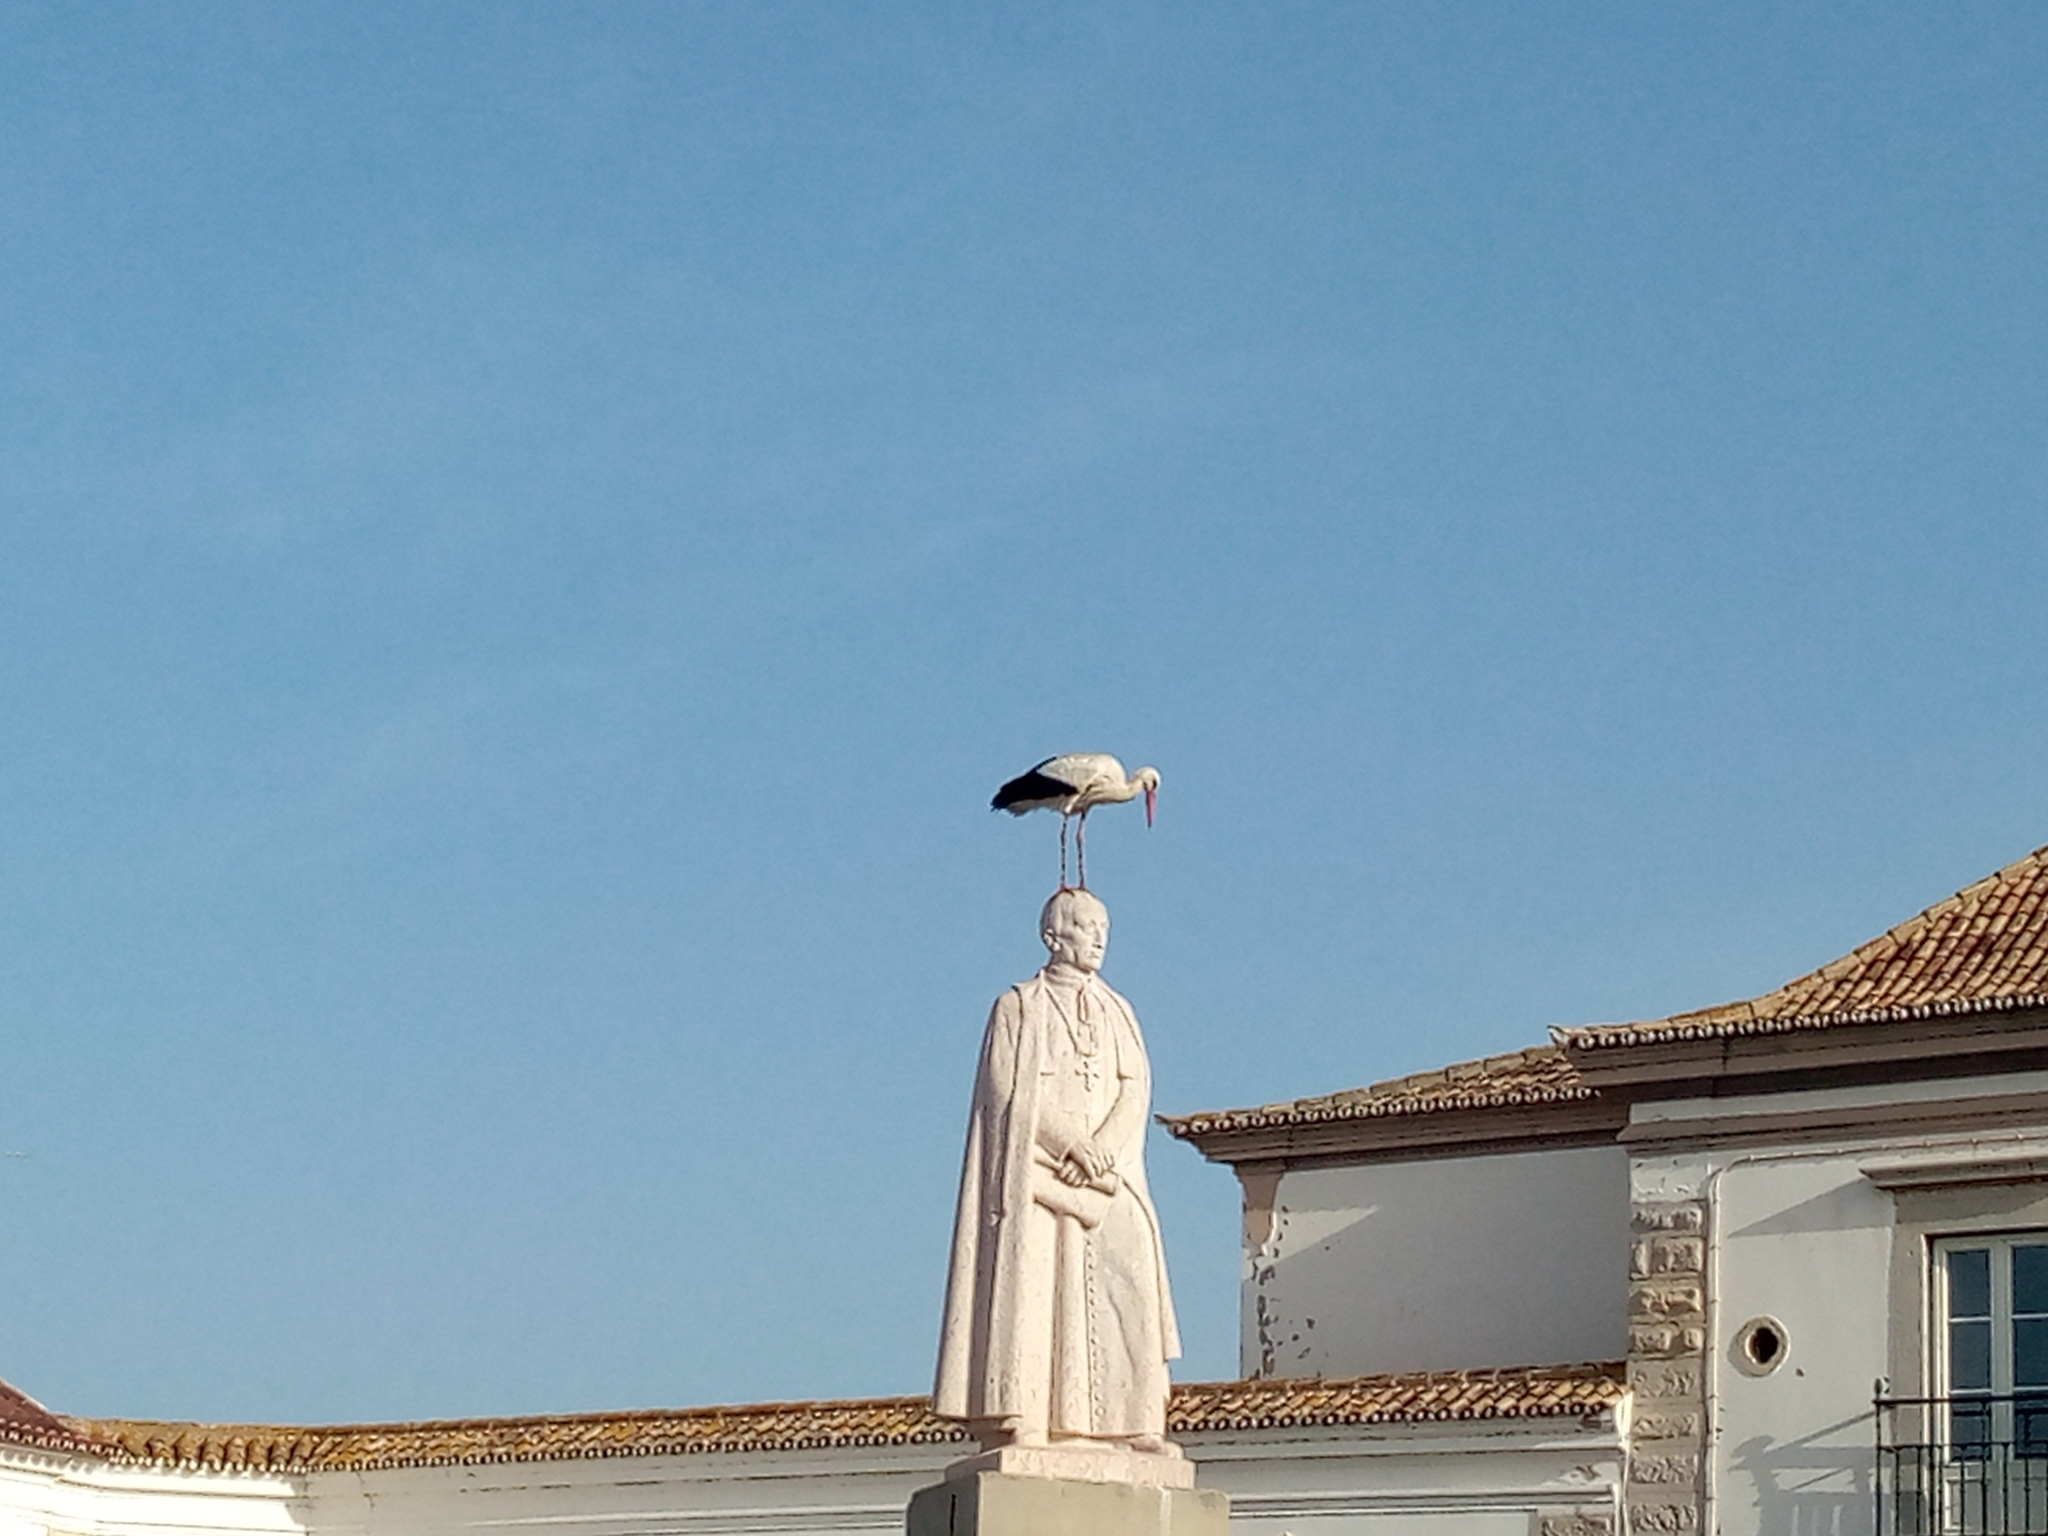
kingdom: Animalia
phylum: Chordata
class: Aves
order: Ciconiiformes
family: Ciconiidae
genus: Ciconia
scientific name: Ciconia ciconia
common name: White stork
